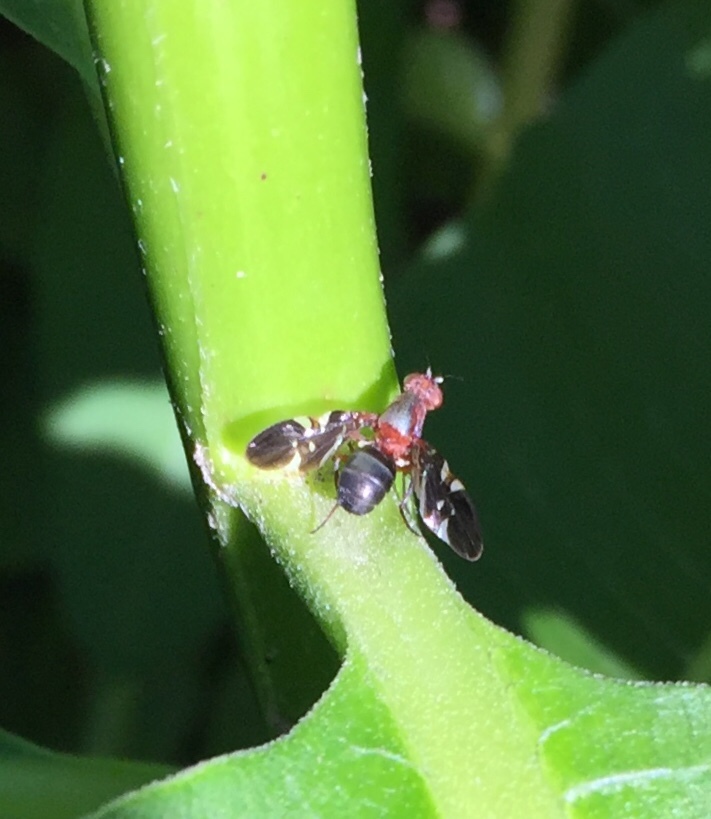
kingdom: Animalia
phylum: Arthropoda
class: Insecta
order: Diptera
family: Ulidiidae
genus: Delphinia
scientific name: Delphinia picta
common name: Common picture-winged fly
